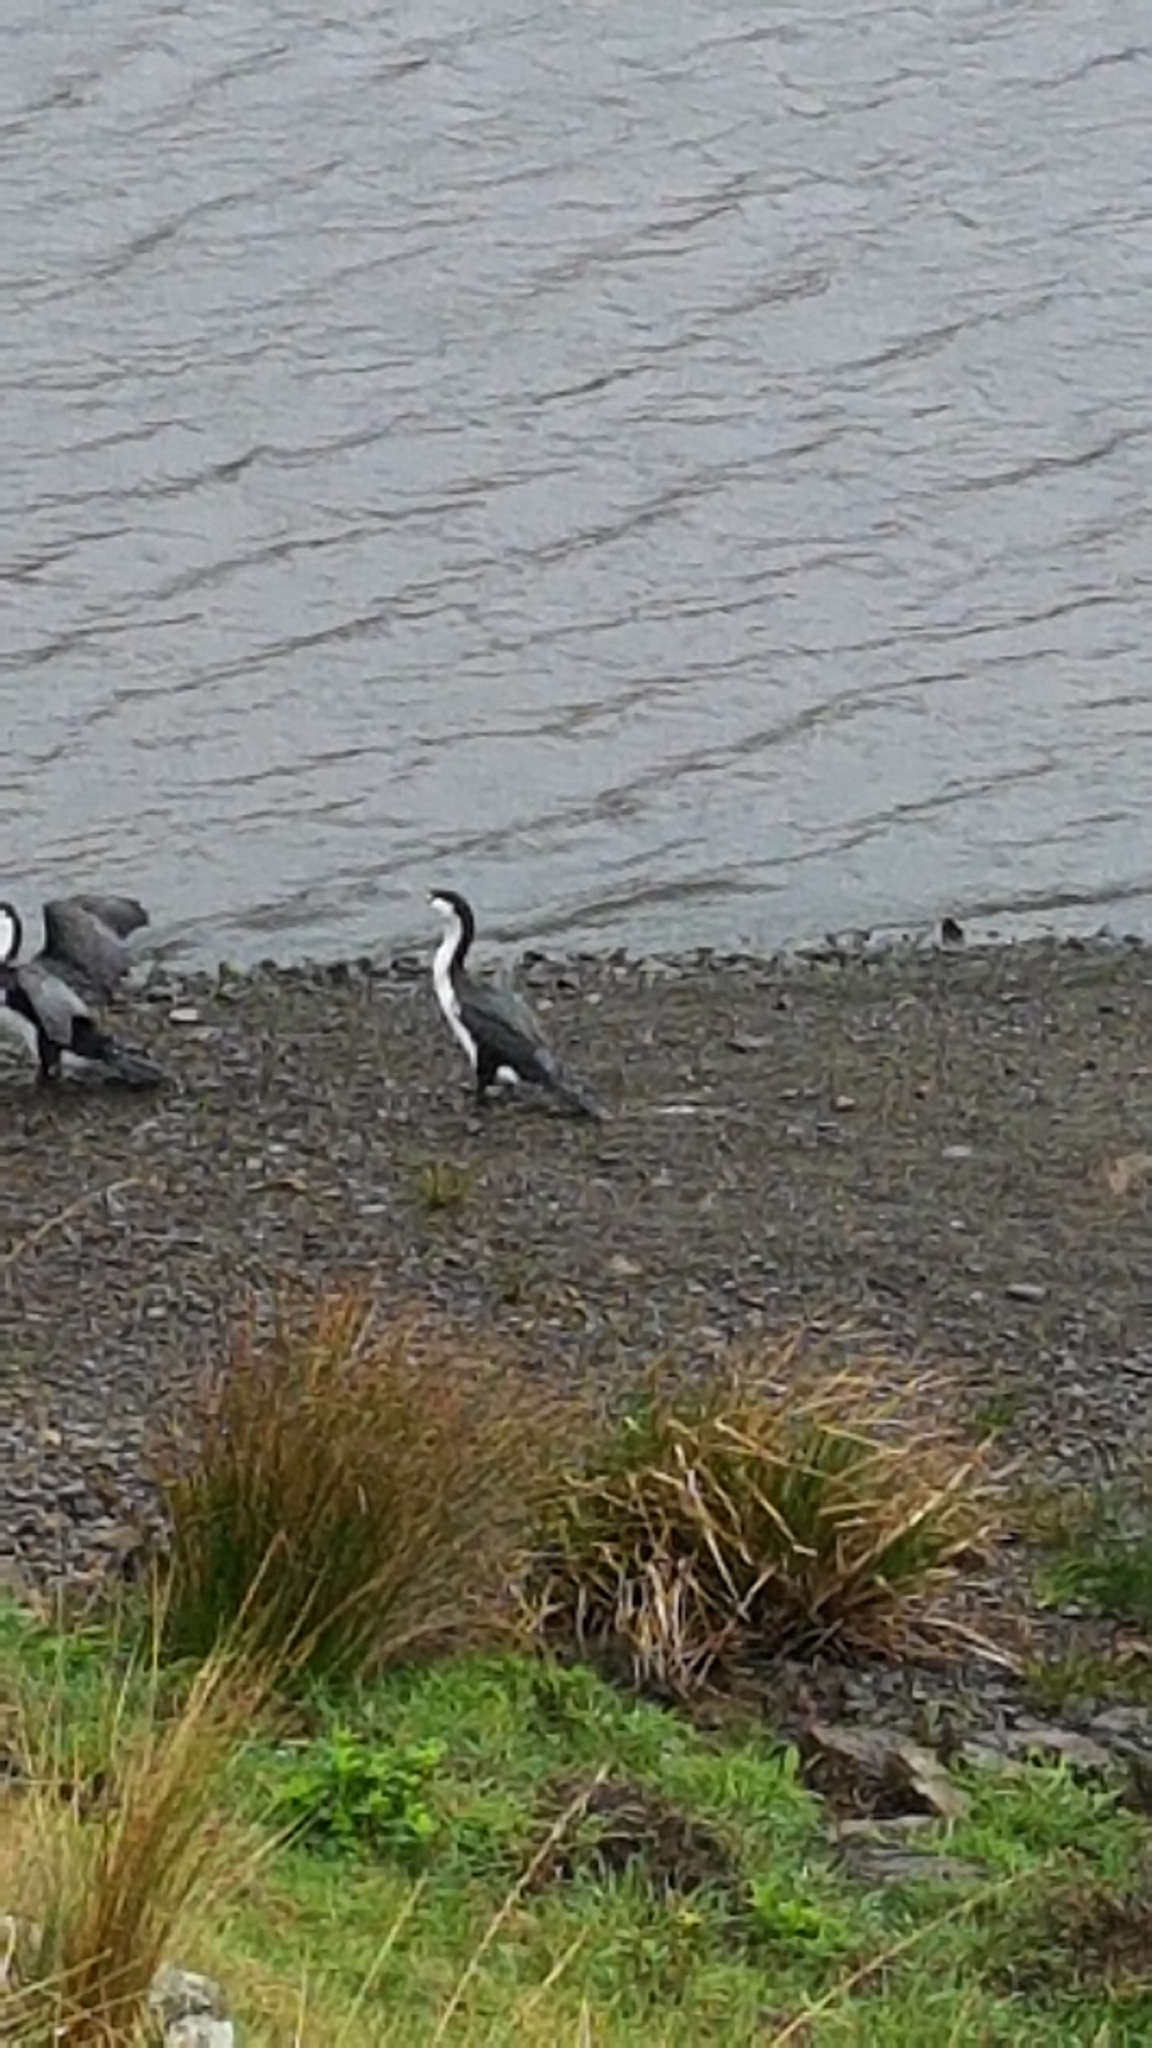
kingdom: Animalia
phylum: Chordata
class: Aves
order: Suliformes
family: Phalacrocoracidae
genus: Phalacrocorax
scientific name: Phalacrocorax varius
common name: Pied cormorant
